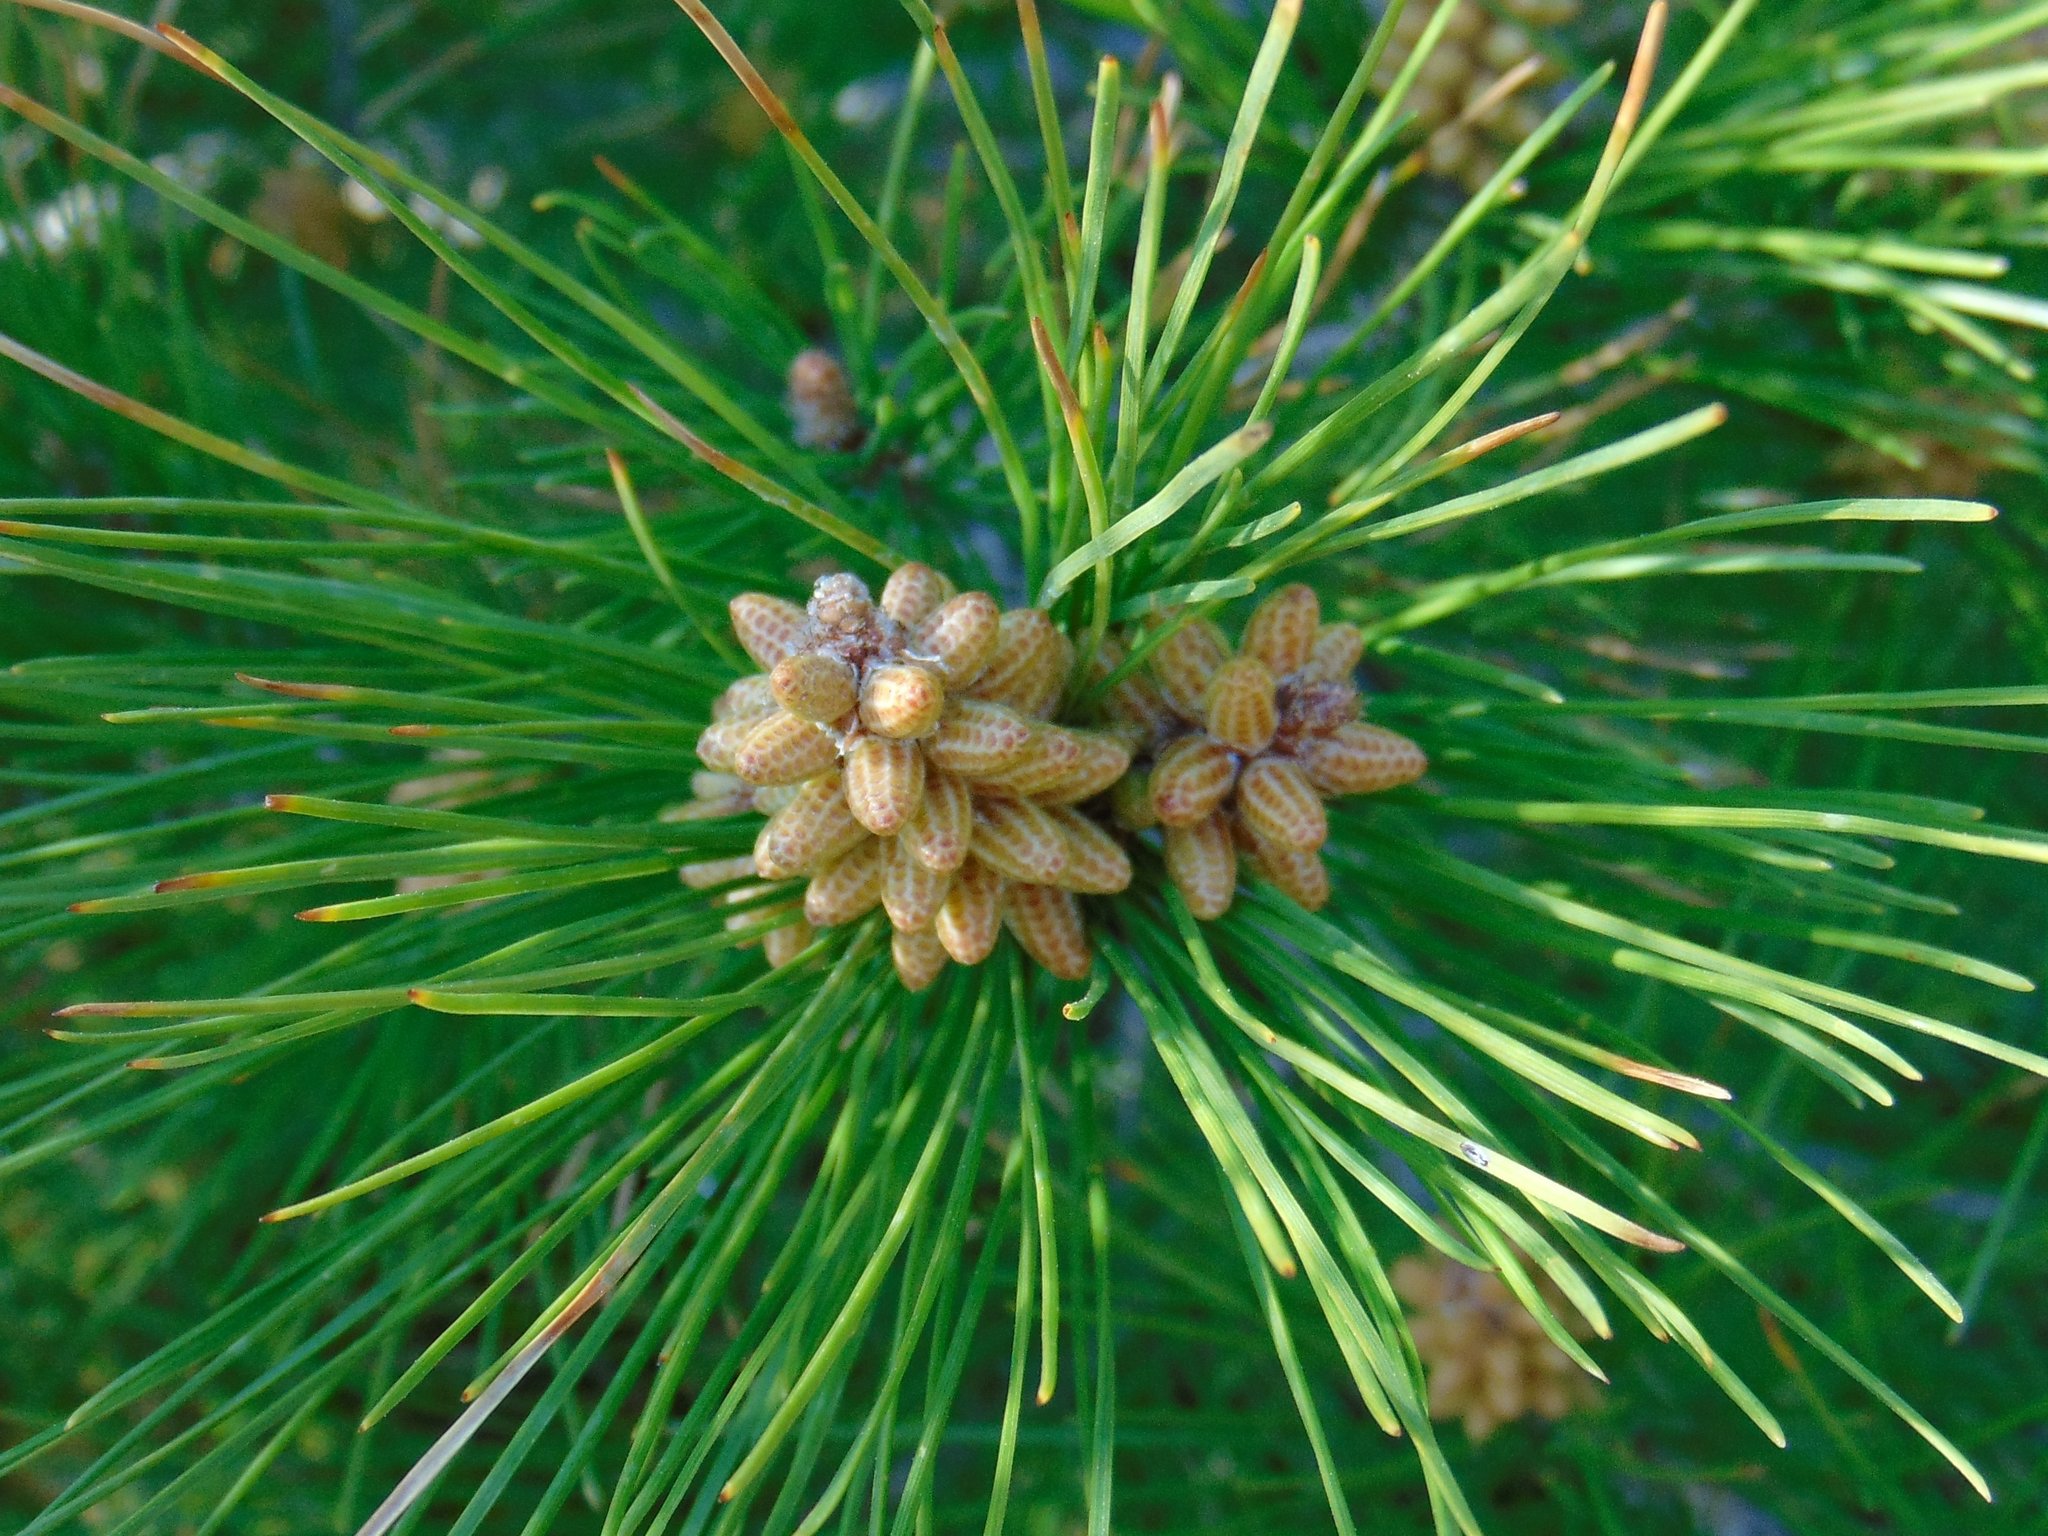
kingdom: Plantae
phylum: Tracheophyta
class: Pinopsida
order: Pinales
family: Pinaceae
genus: Pinus
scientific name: Pinus halepensis
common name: Aleppo pine
